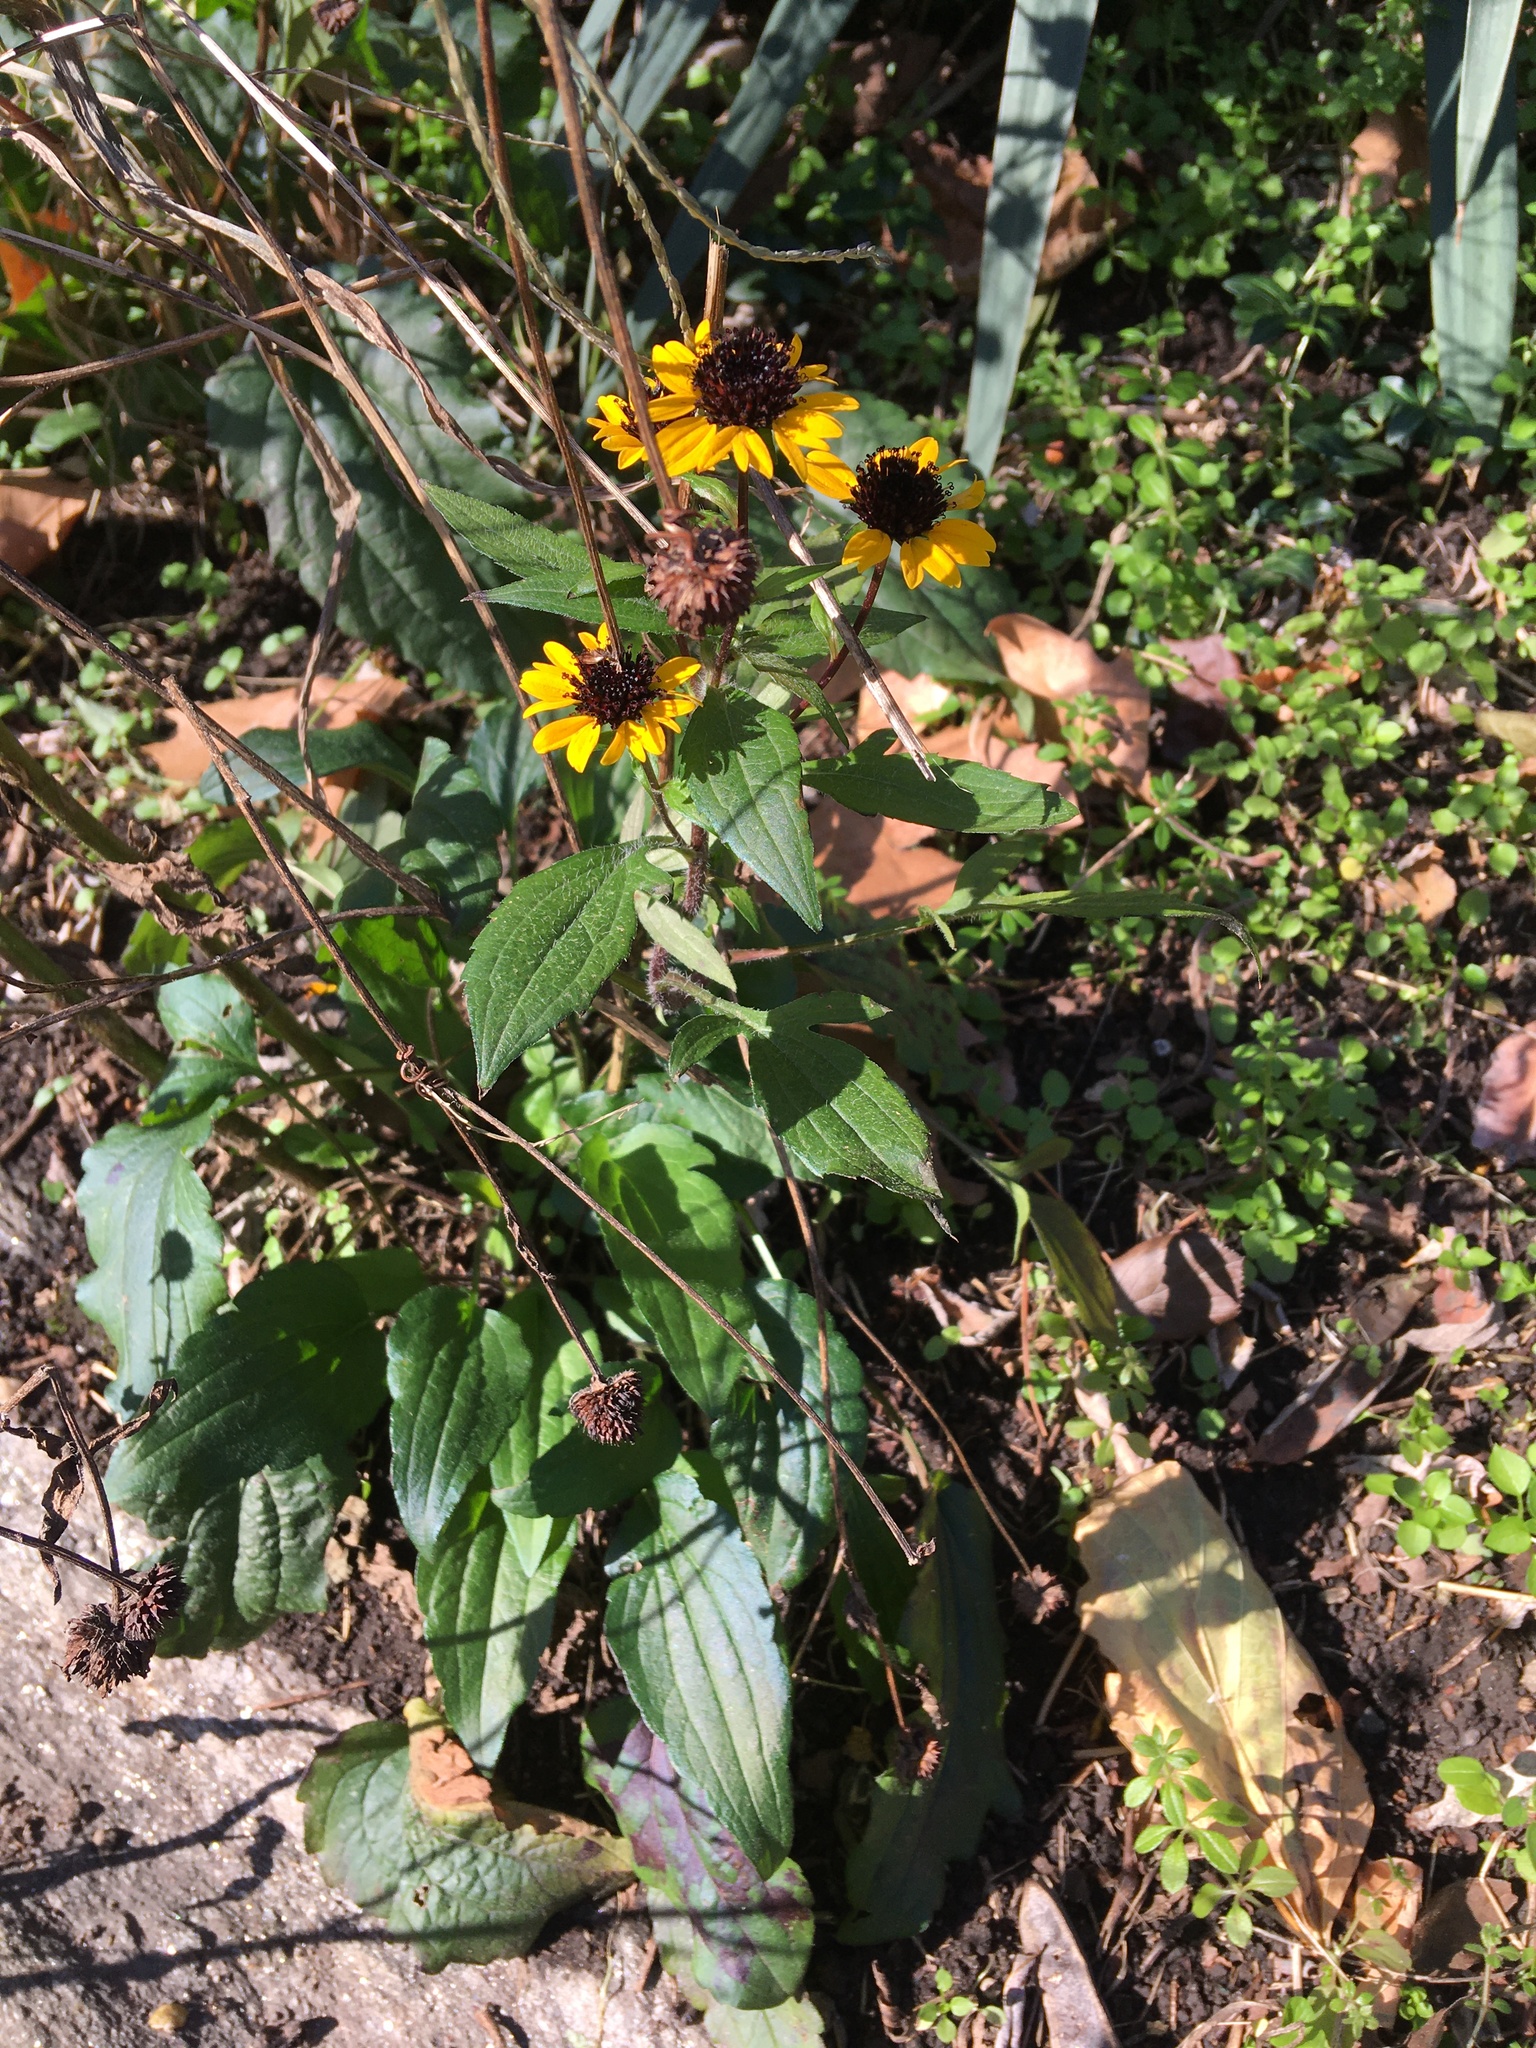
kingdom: Plantae
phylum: Tracheophyta
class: Magnoliopsida
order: Asterales
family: Asteraceae
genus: Rudbeckia
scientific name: Rudbeckia triloba
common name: Thin-leaved coneflower
